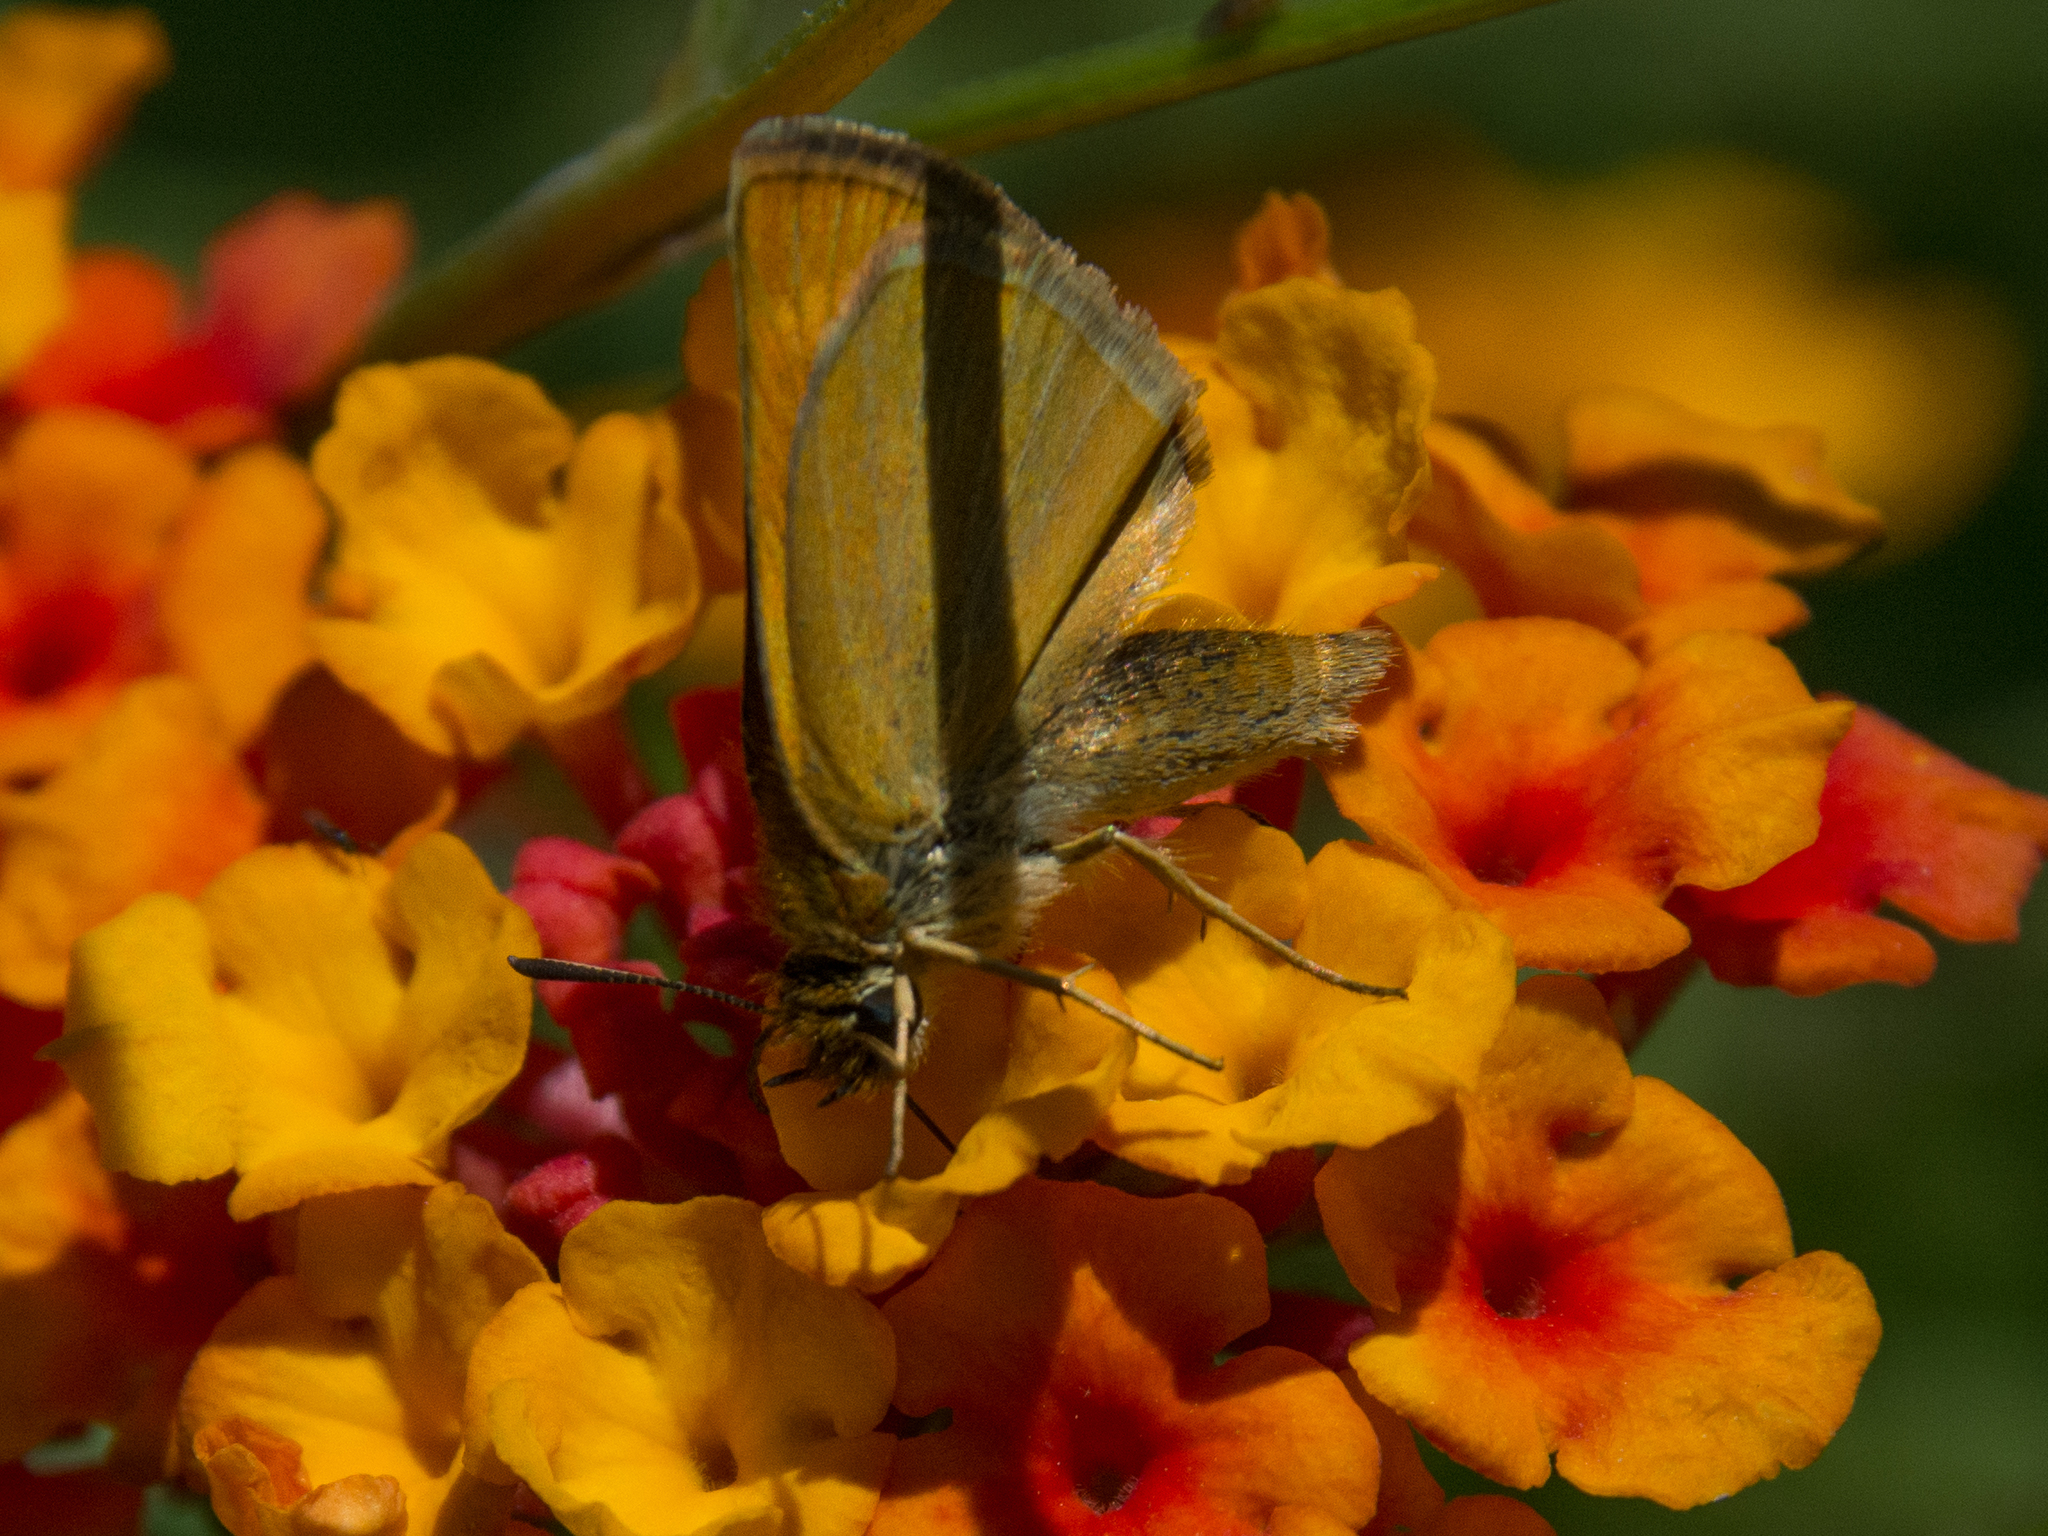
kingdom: Animalia
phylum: Arthropoda
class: Insecta
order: Lepidoptera
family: Hesperiidae
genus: Thymelicus
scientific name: Thymelicus acteon
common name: Lulworth skipper
